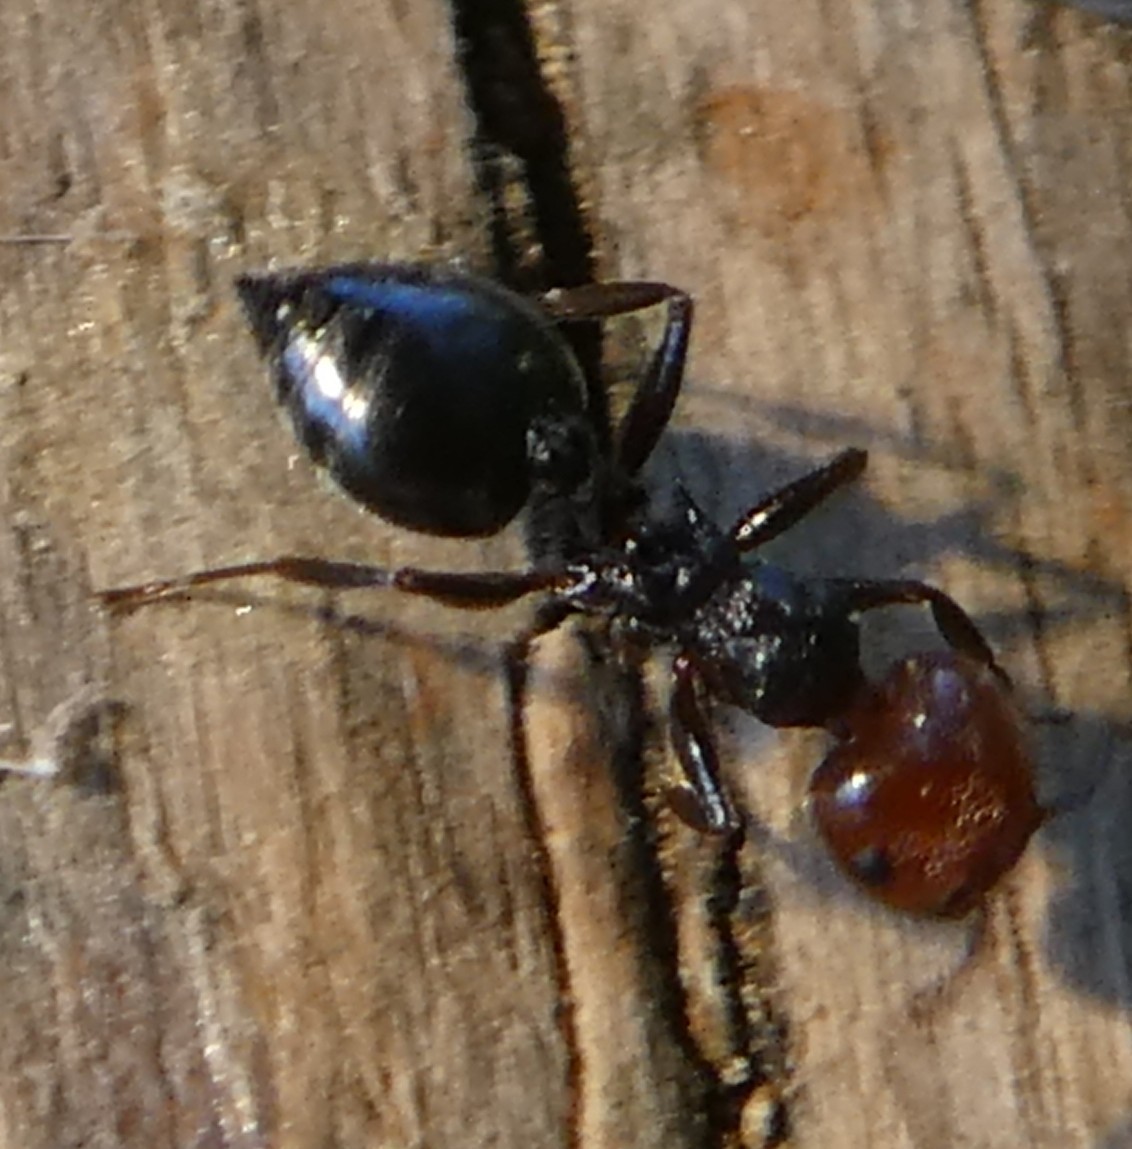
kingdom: Animalia
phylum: Arthropoda
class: Insecta
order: Hymenoptera
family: Formicidae
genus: Crematogaster
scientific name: Crematogaster scutellaris
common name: Fourmi du liège
